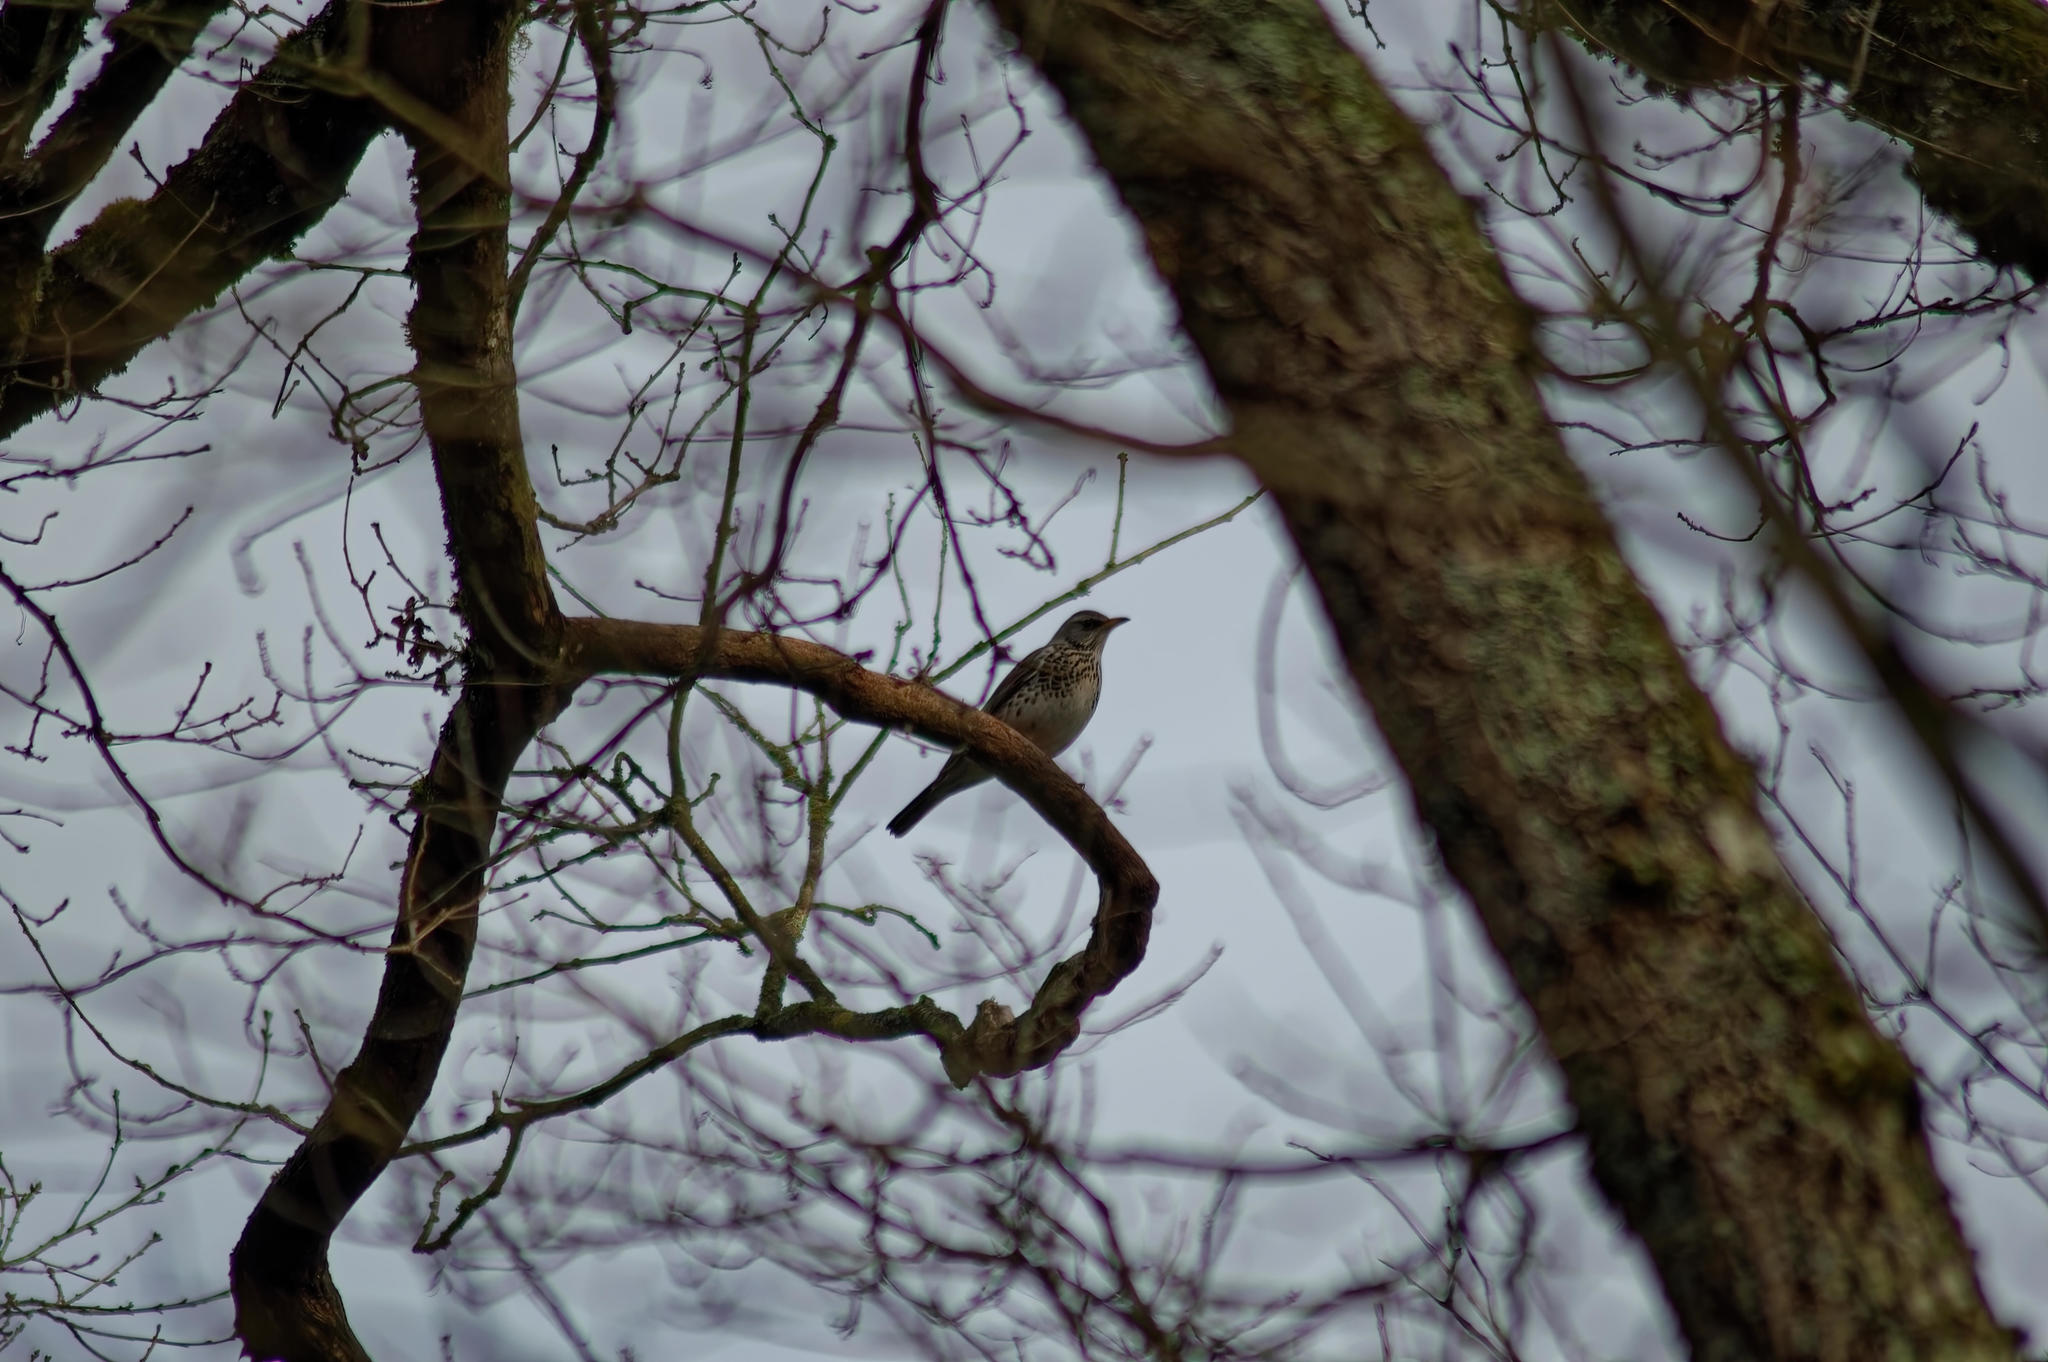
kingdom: Animalia
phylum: Chordata
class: Aves
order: Passeriformes
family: Turdidae
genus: Turdus
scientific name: Turdus pilaris
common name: Fieldfare
